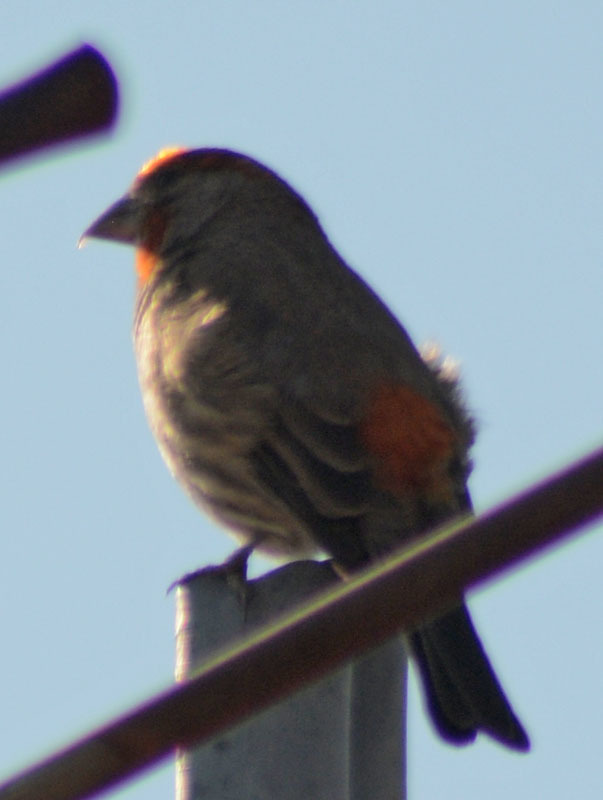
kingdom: Animalia
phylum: Chordata
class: Aves
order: Passeriformes
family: Fringillidae
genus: Haemorhous
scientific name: Haemorhous mexicanus
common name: House finch
